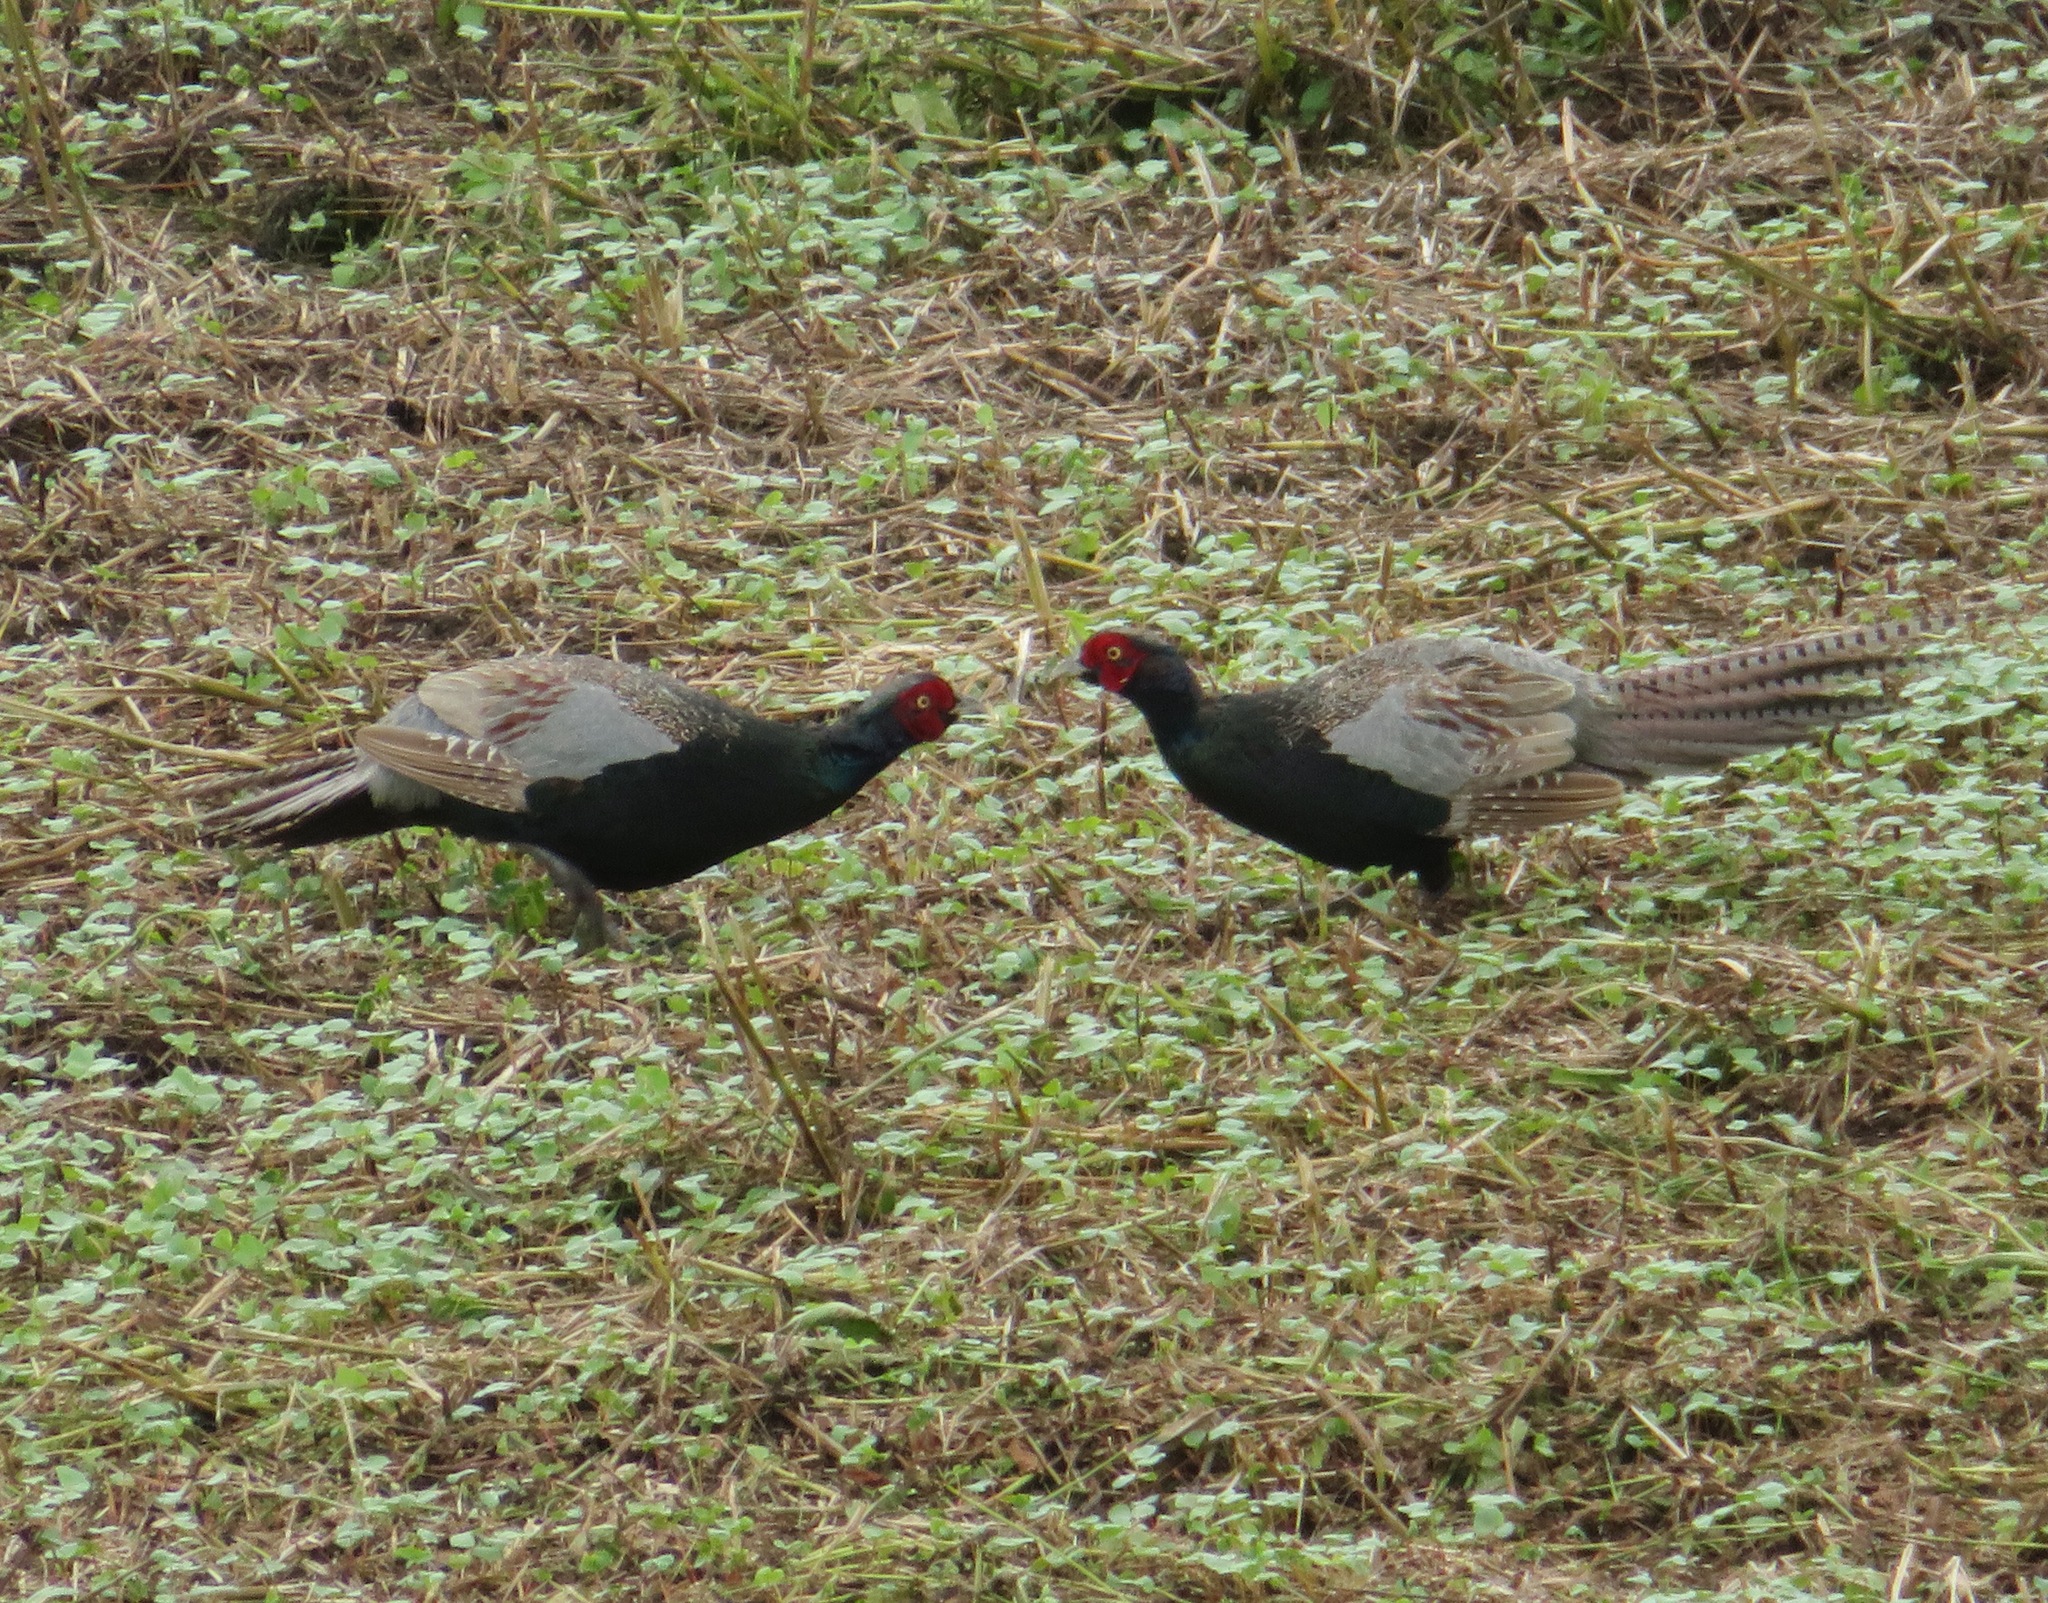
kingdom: Animalia
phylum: Chordata
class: Aves
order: Galliformes
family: Phasianidae
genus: Phasianus
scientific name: Phasianus versicolor
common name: Green pheasant
